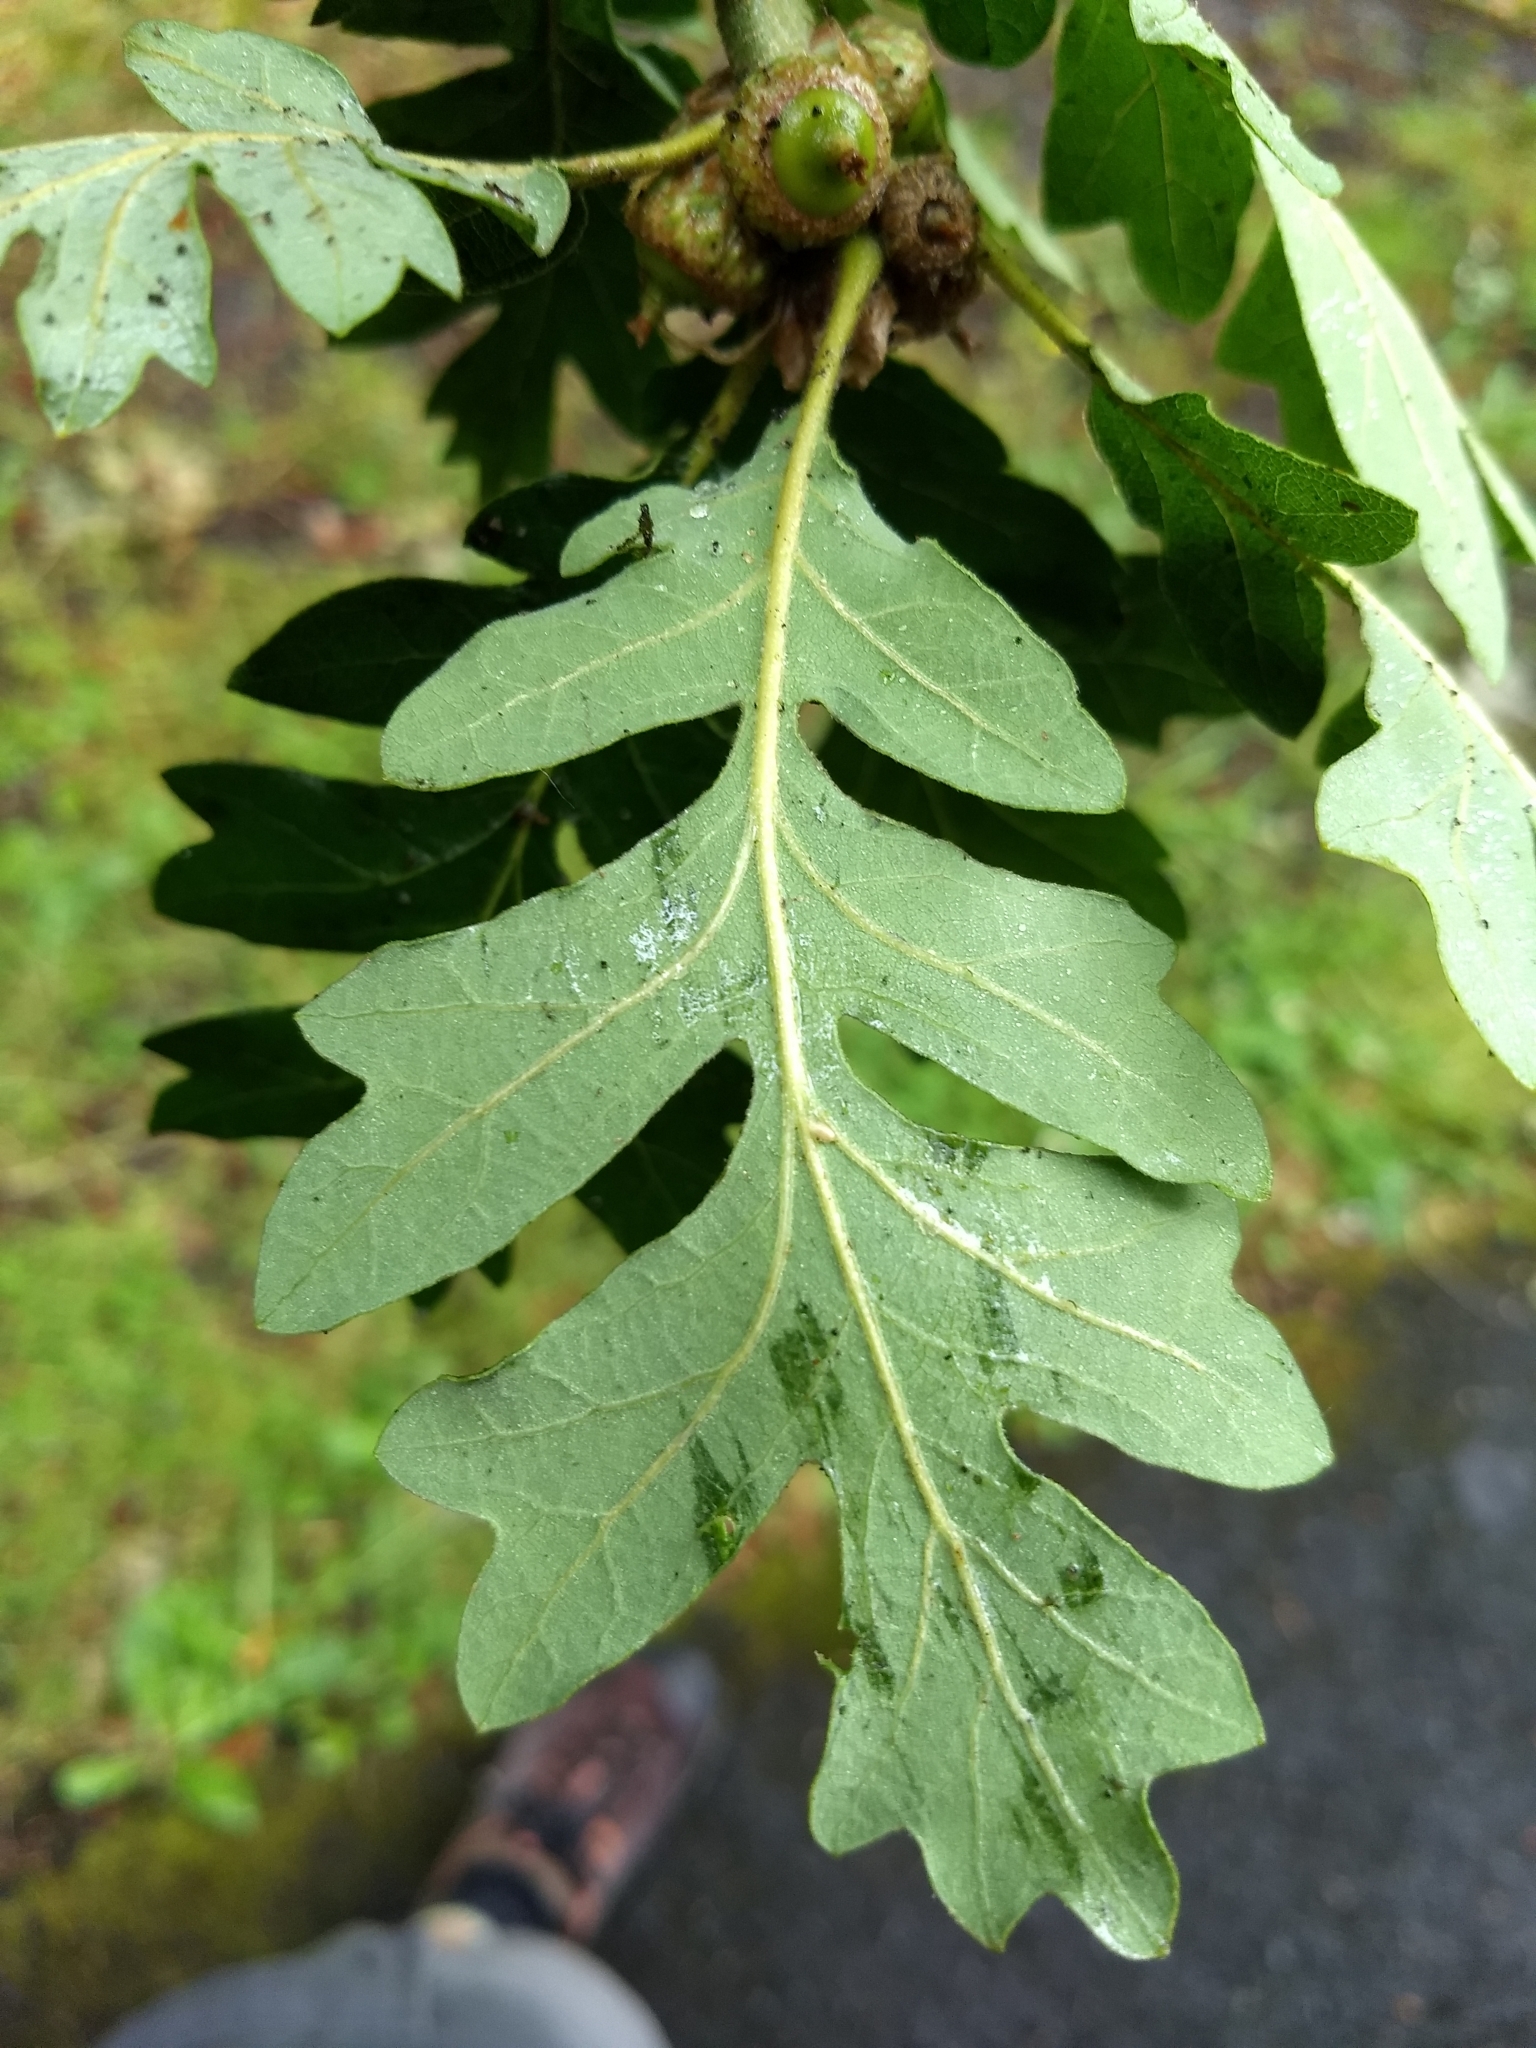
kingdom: Plantae
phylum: Tracheophyta
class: Magnoliopsida
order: Fagales
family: Fagaceae
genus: Quercus
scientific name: Quercus garryana
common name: Garry oak
